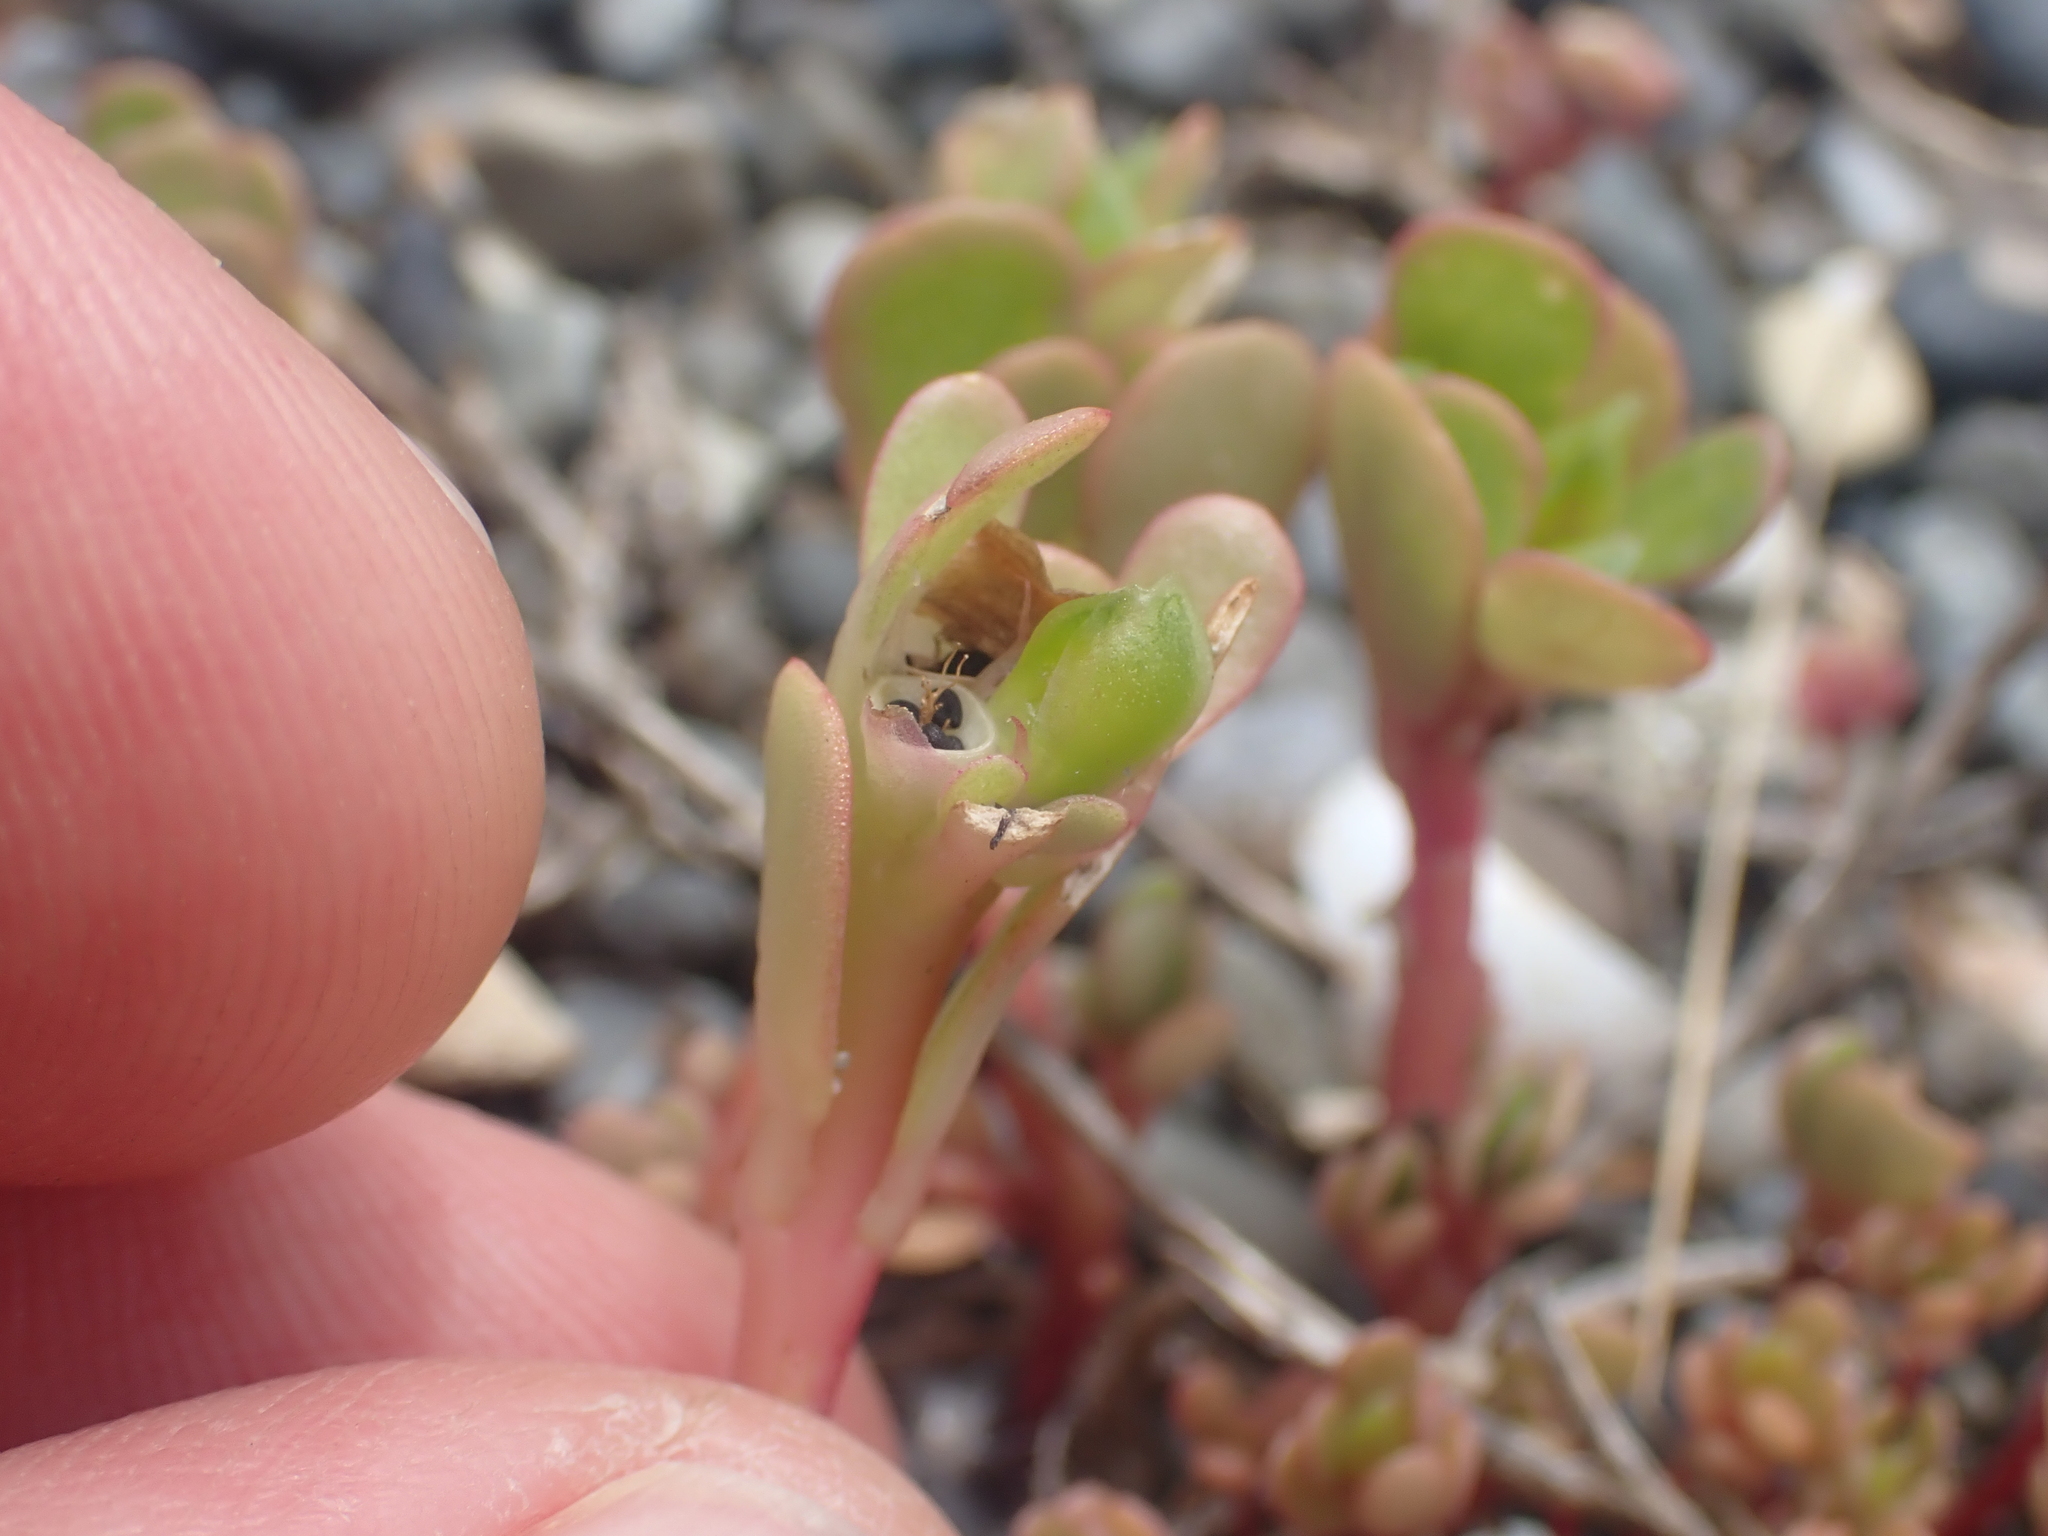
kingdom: Plantae
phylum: Tracheophyta
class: Magnoliopsida
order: Caryophyllales
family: Portulacaceae
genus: Portulaca
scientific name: Portulaca oleracea
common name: Common purslane
